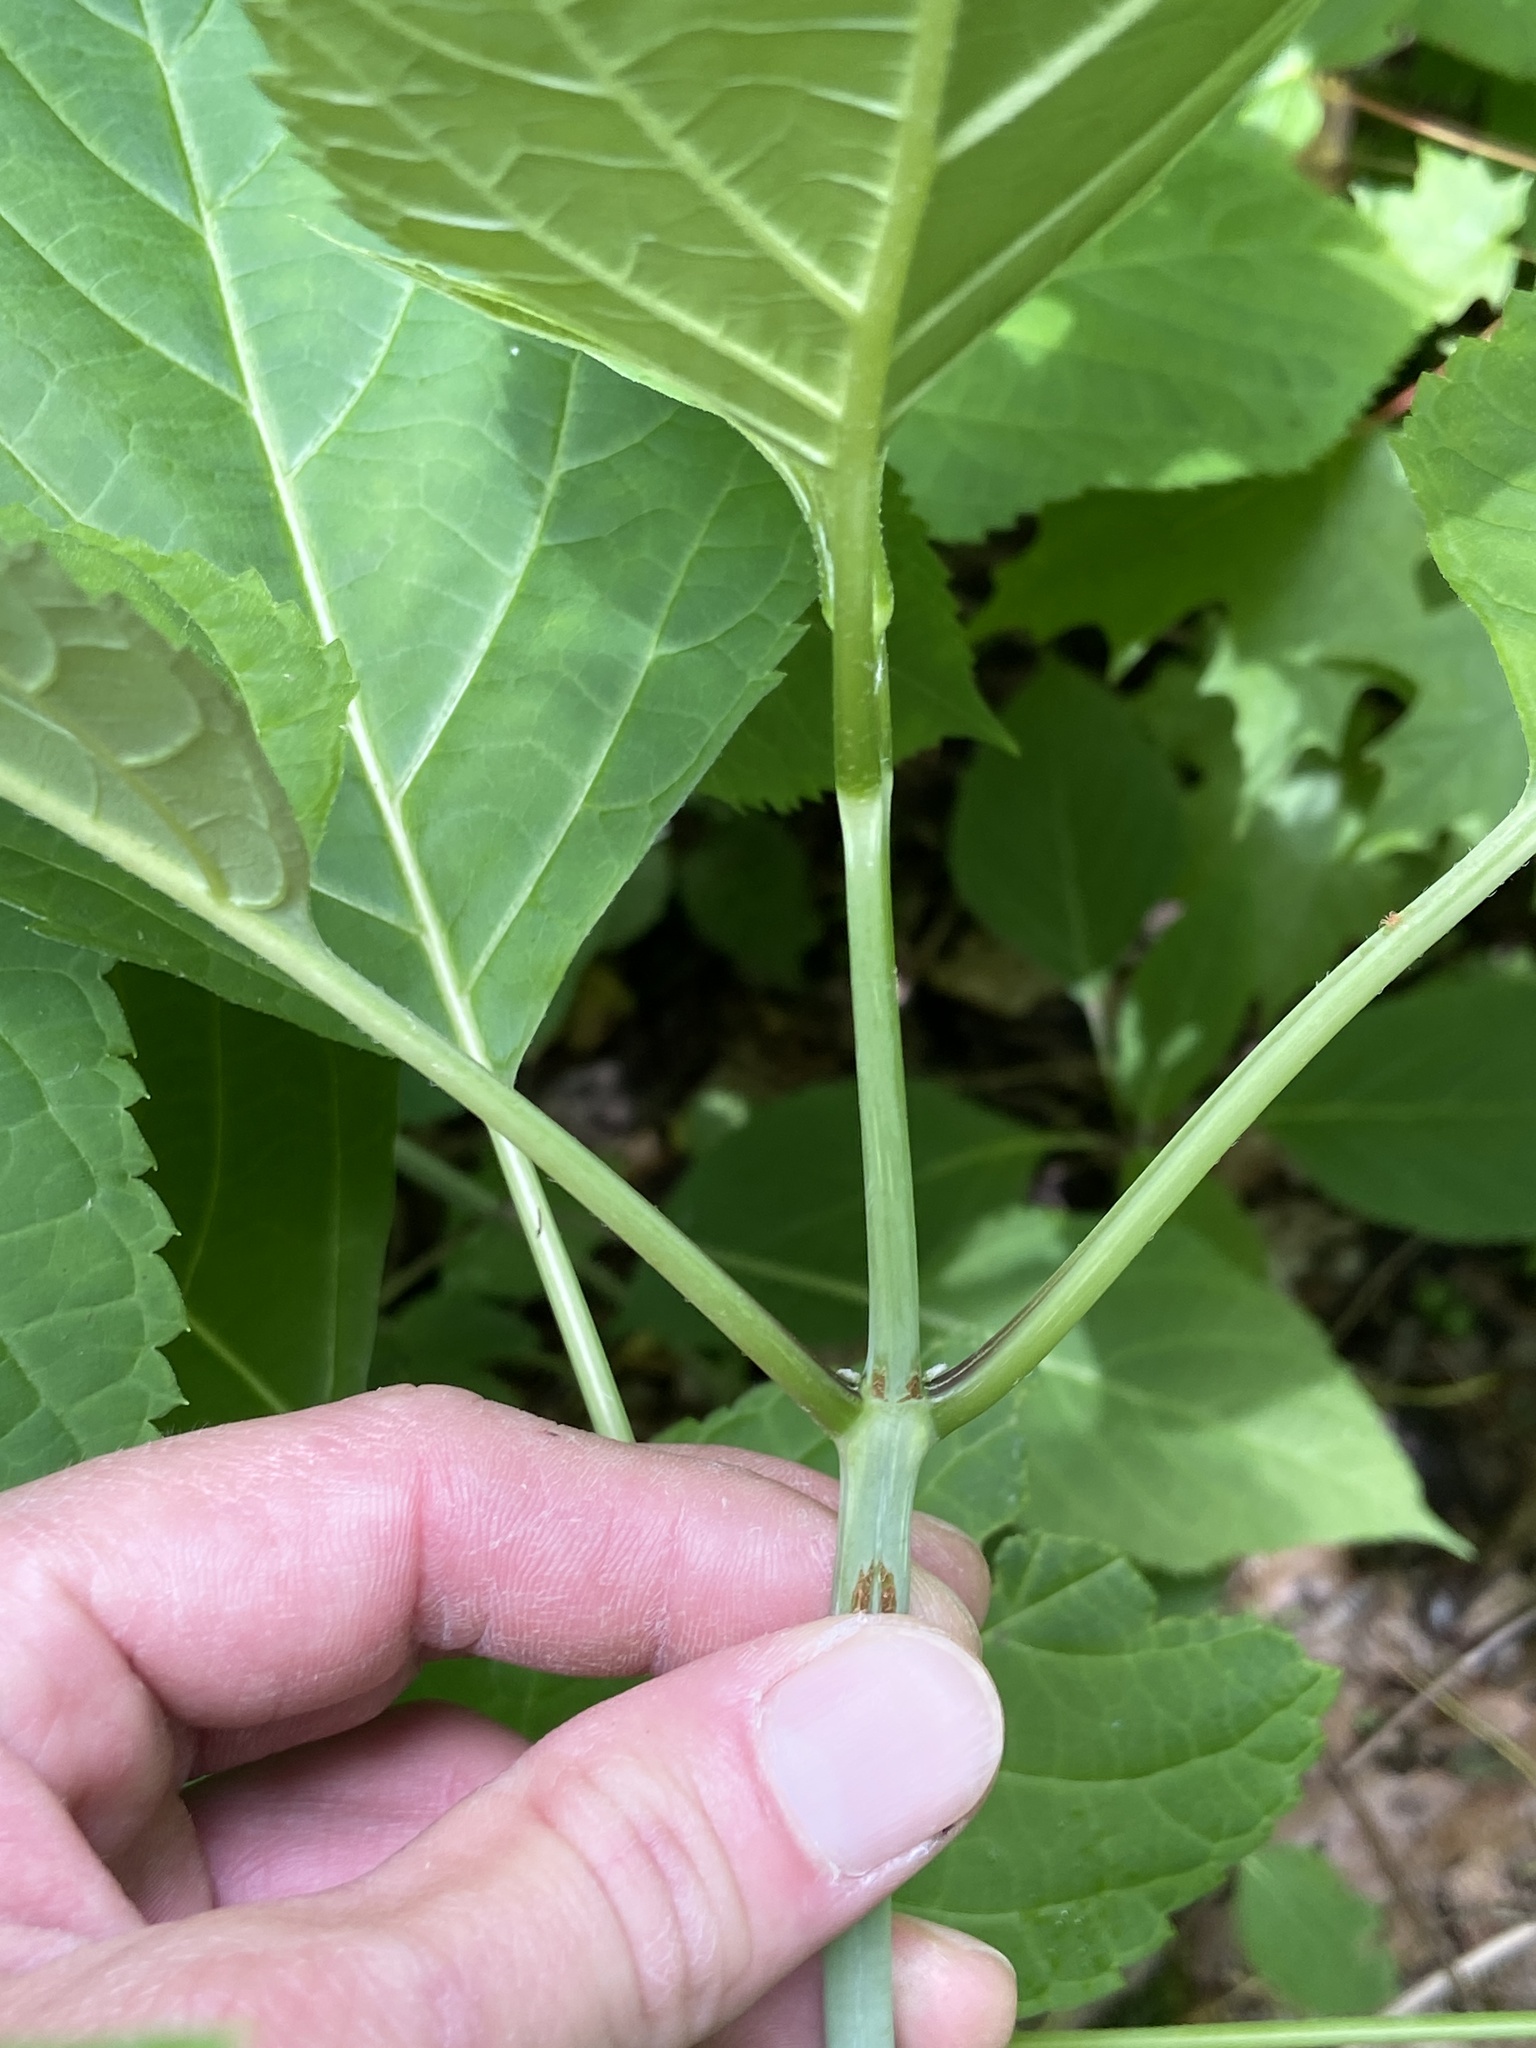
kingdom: Plantae
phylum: Tracheophyta
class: Magnoliopsida
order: Lamiales
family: Lamiaceae
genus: Collinsonia
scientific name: Collinsonia canadensis
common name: Northern horsebalm
